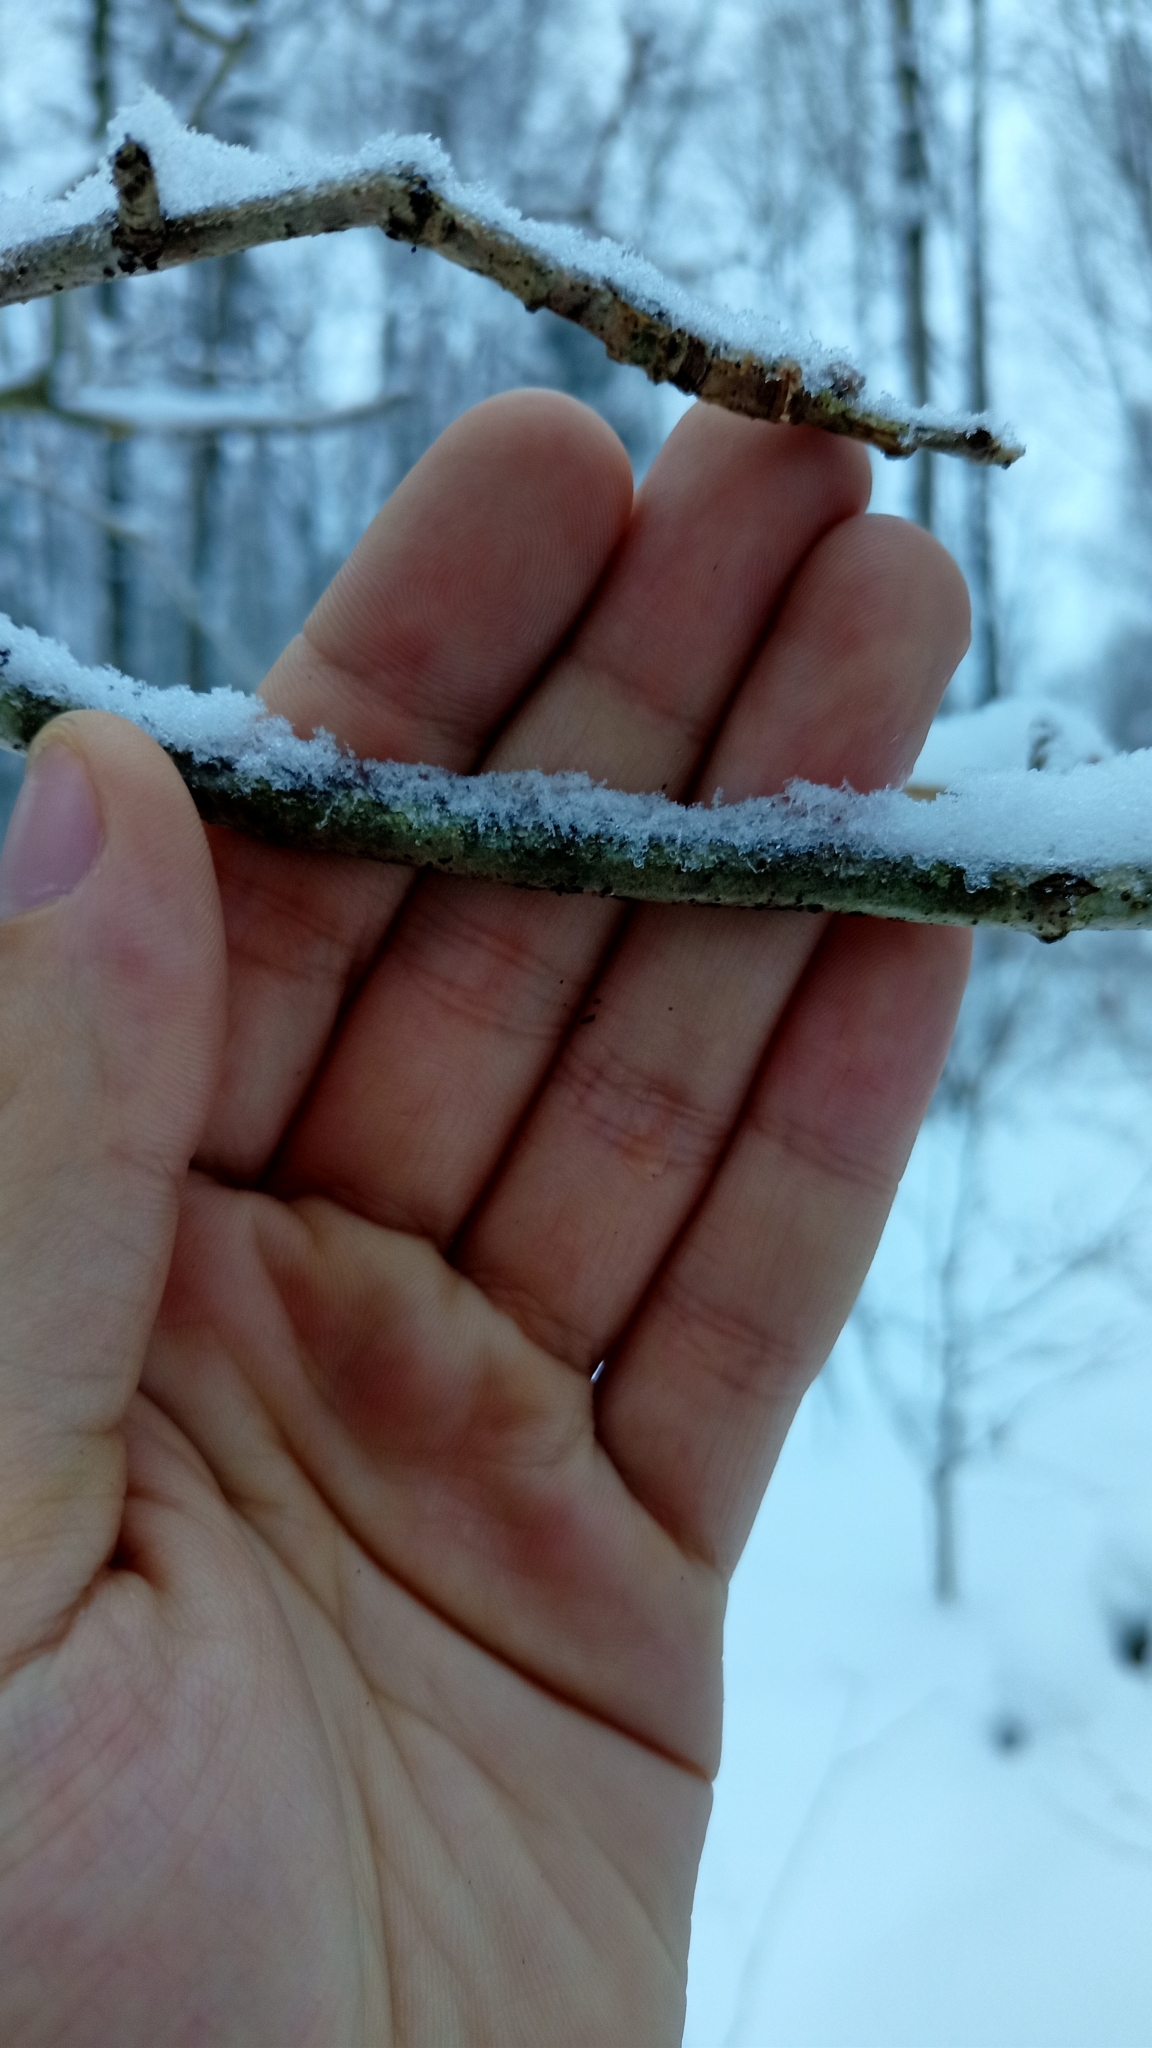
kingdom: Plantae
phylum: Tracheophyta
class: Magnoliopsida
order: Fagales
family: Fagaceae
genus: Quercus
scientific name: Quercus robur
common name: Pedunculate oak
